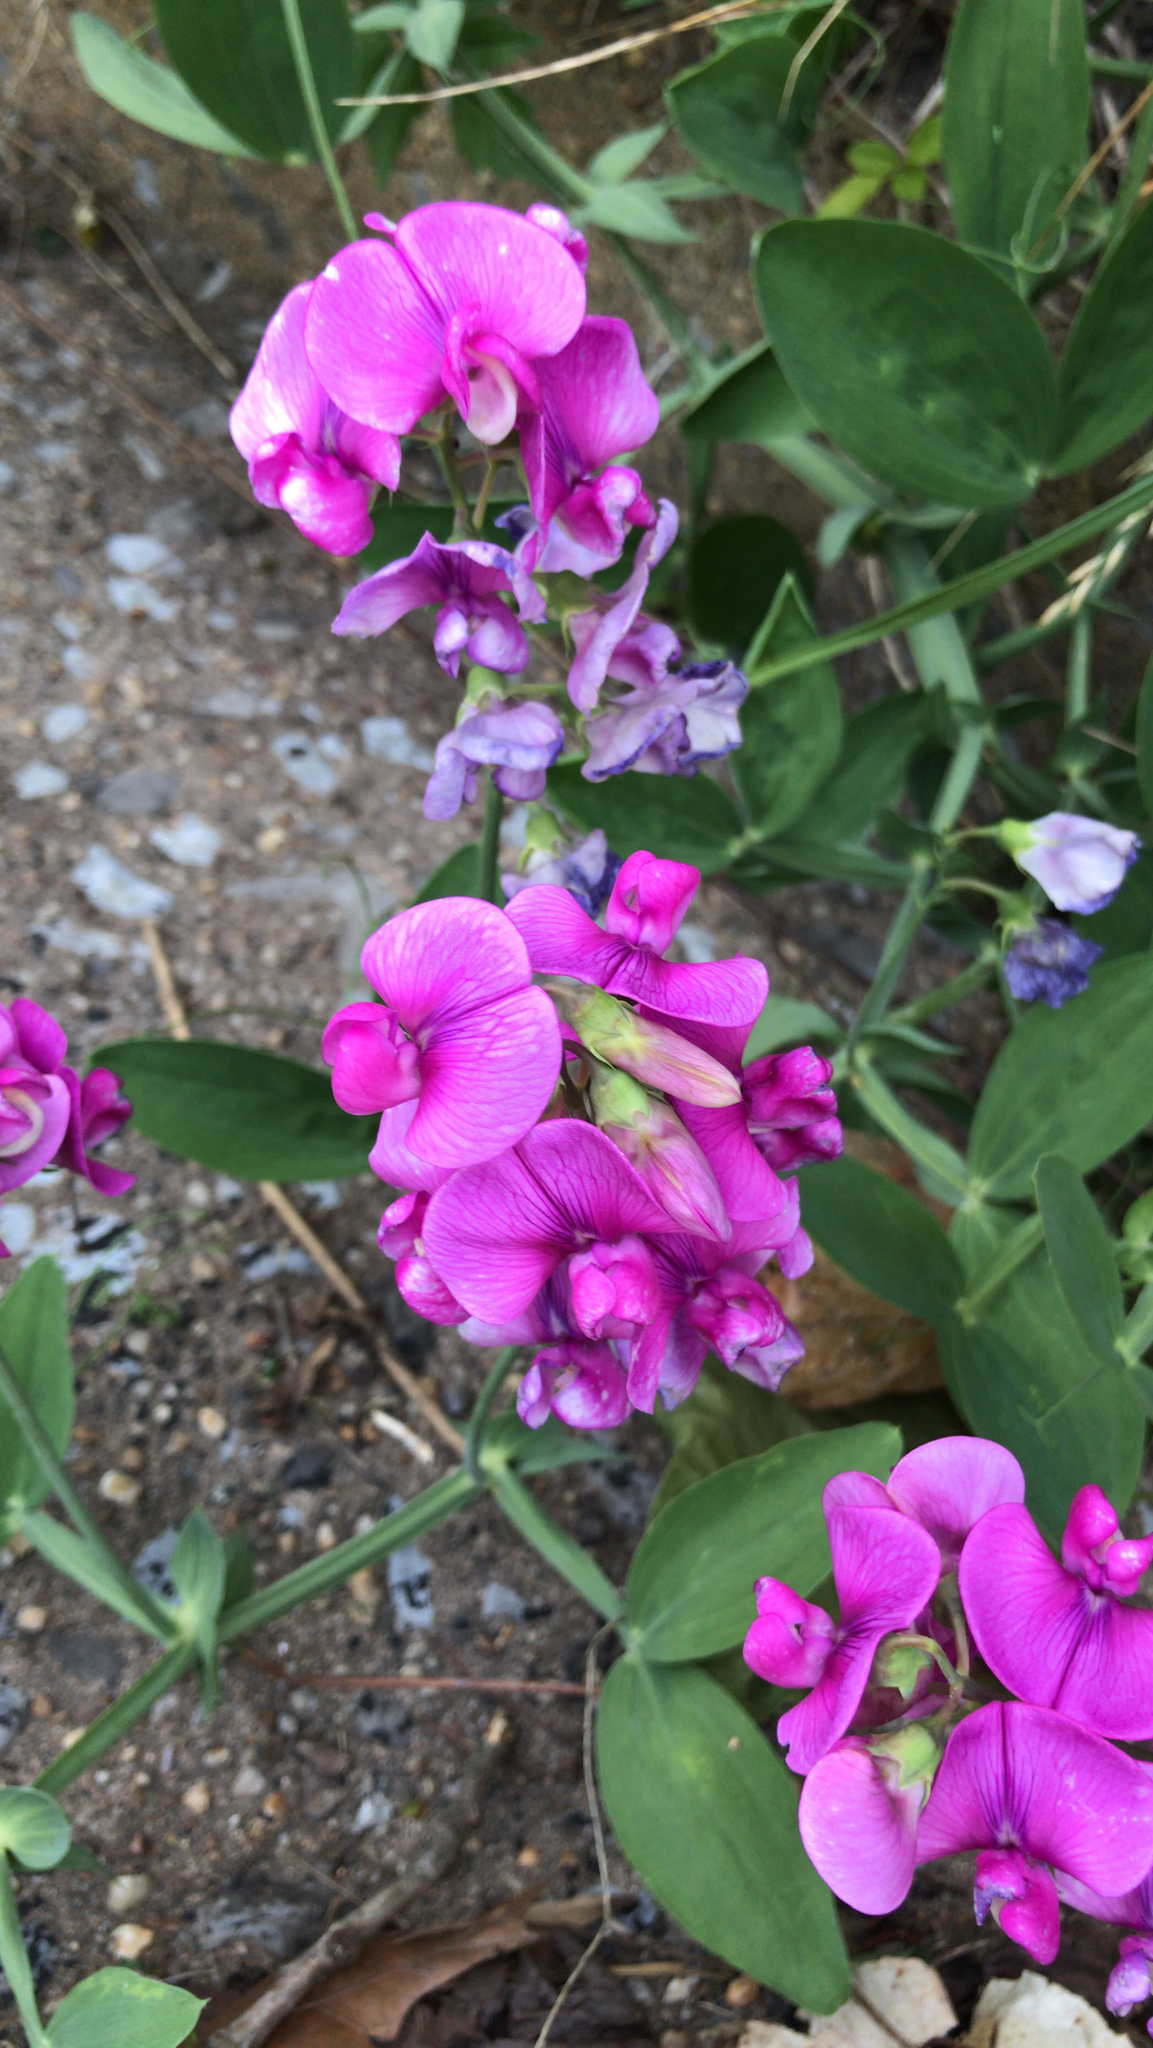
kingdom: Plantae
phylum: Tracheophyta
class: Magnoliopsida
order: Fabales
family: Fabaceae
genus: Lathyrus
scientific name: Lathyrus latifolius
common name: Perennial pea
